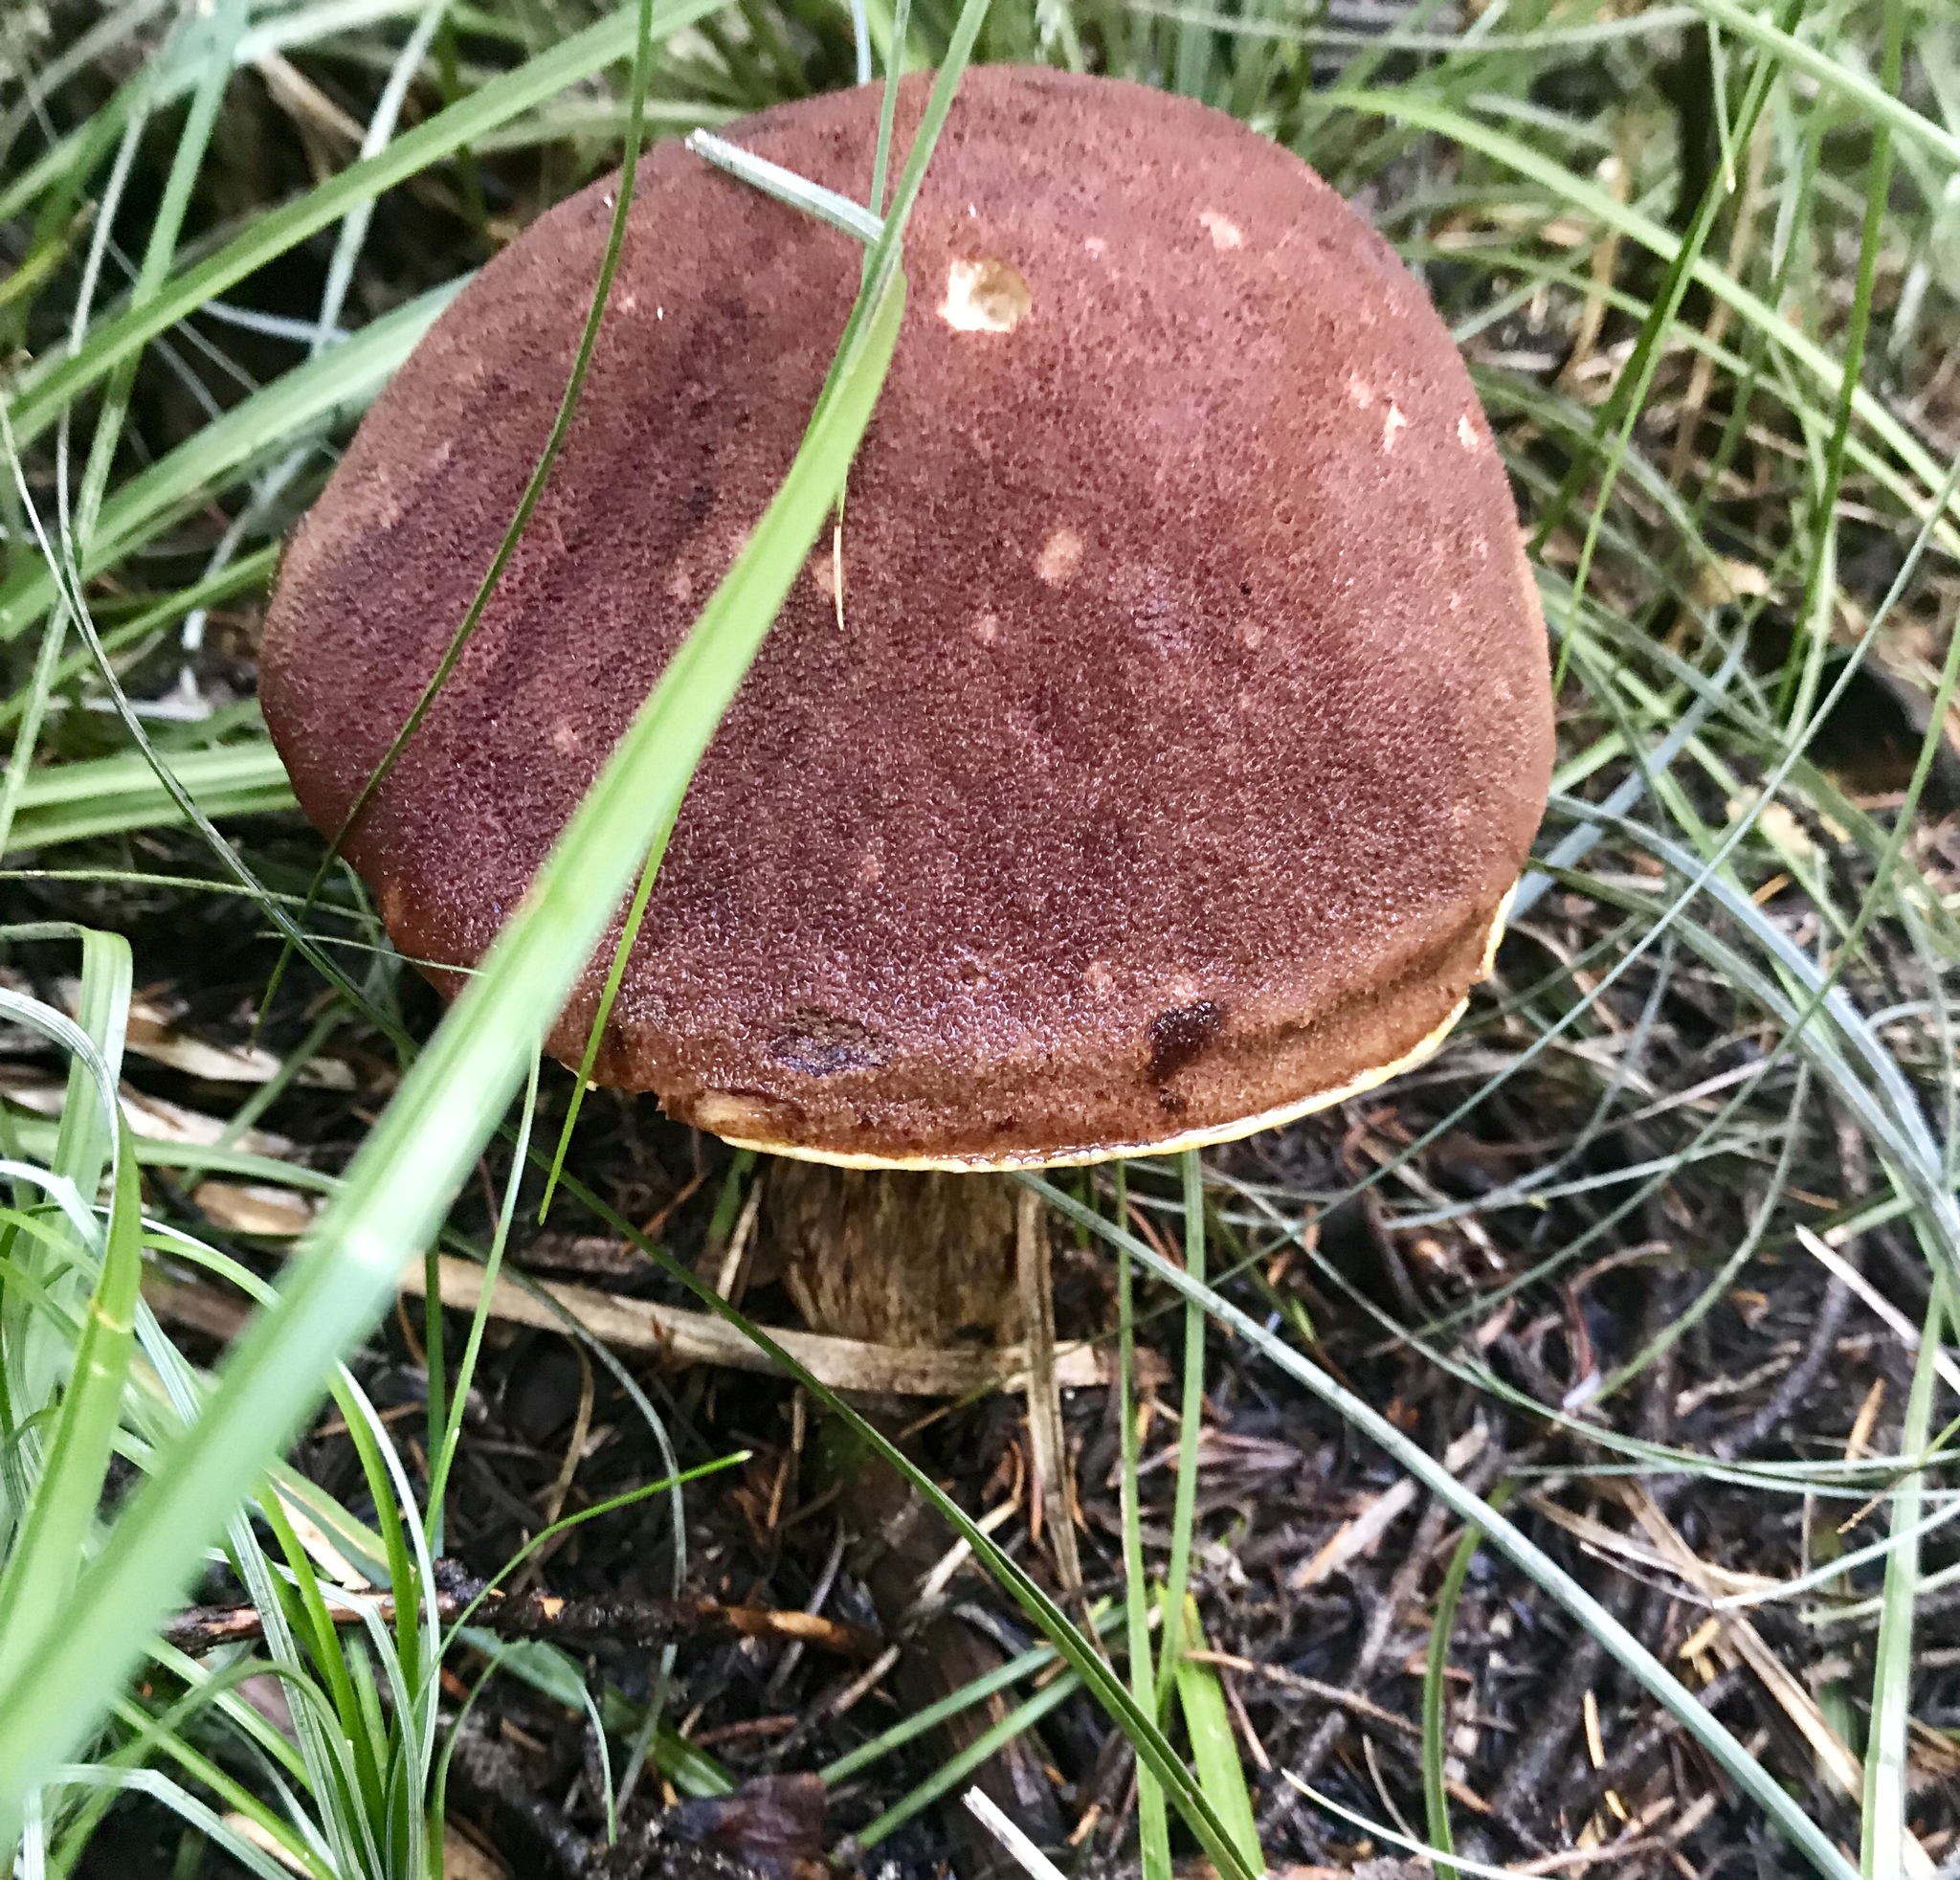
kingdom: Fungi
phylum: Basidiomycota
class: Agaricomycetes
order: Boletales
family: Boletaceae
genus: Aureoboletus
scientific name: Aureoboletus mirabilis
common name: Admirable bolete
